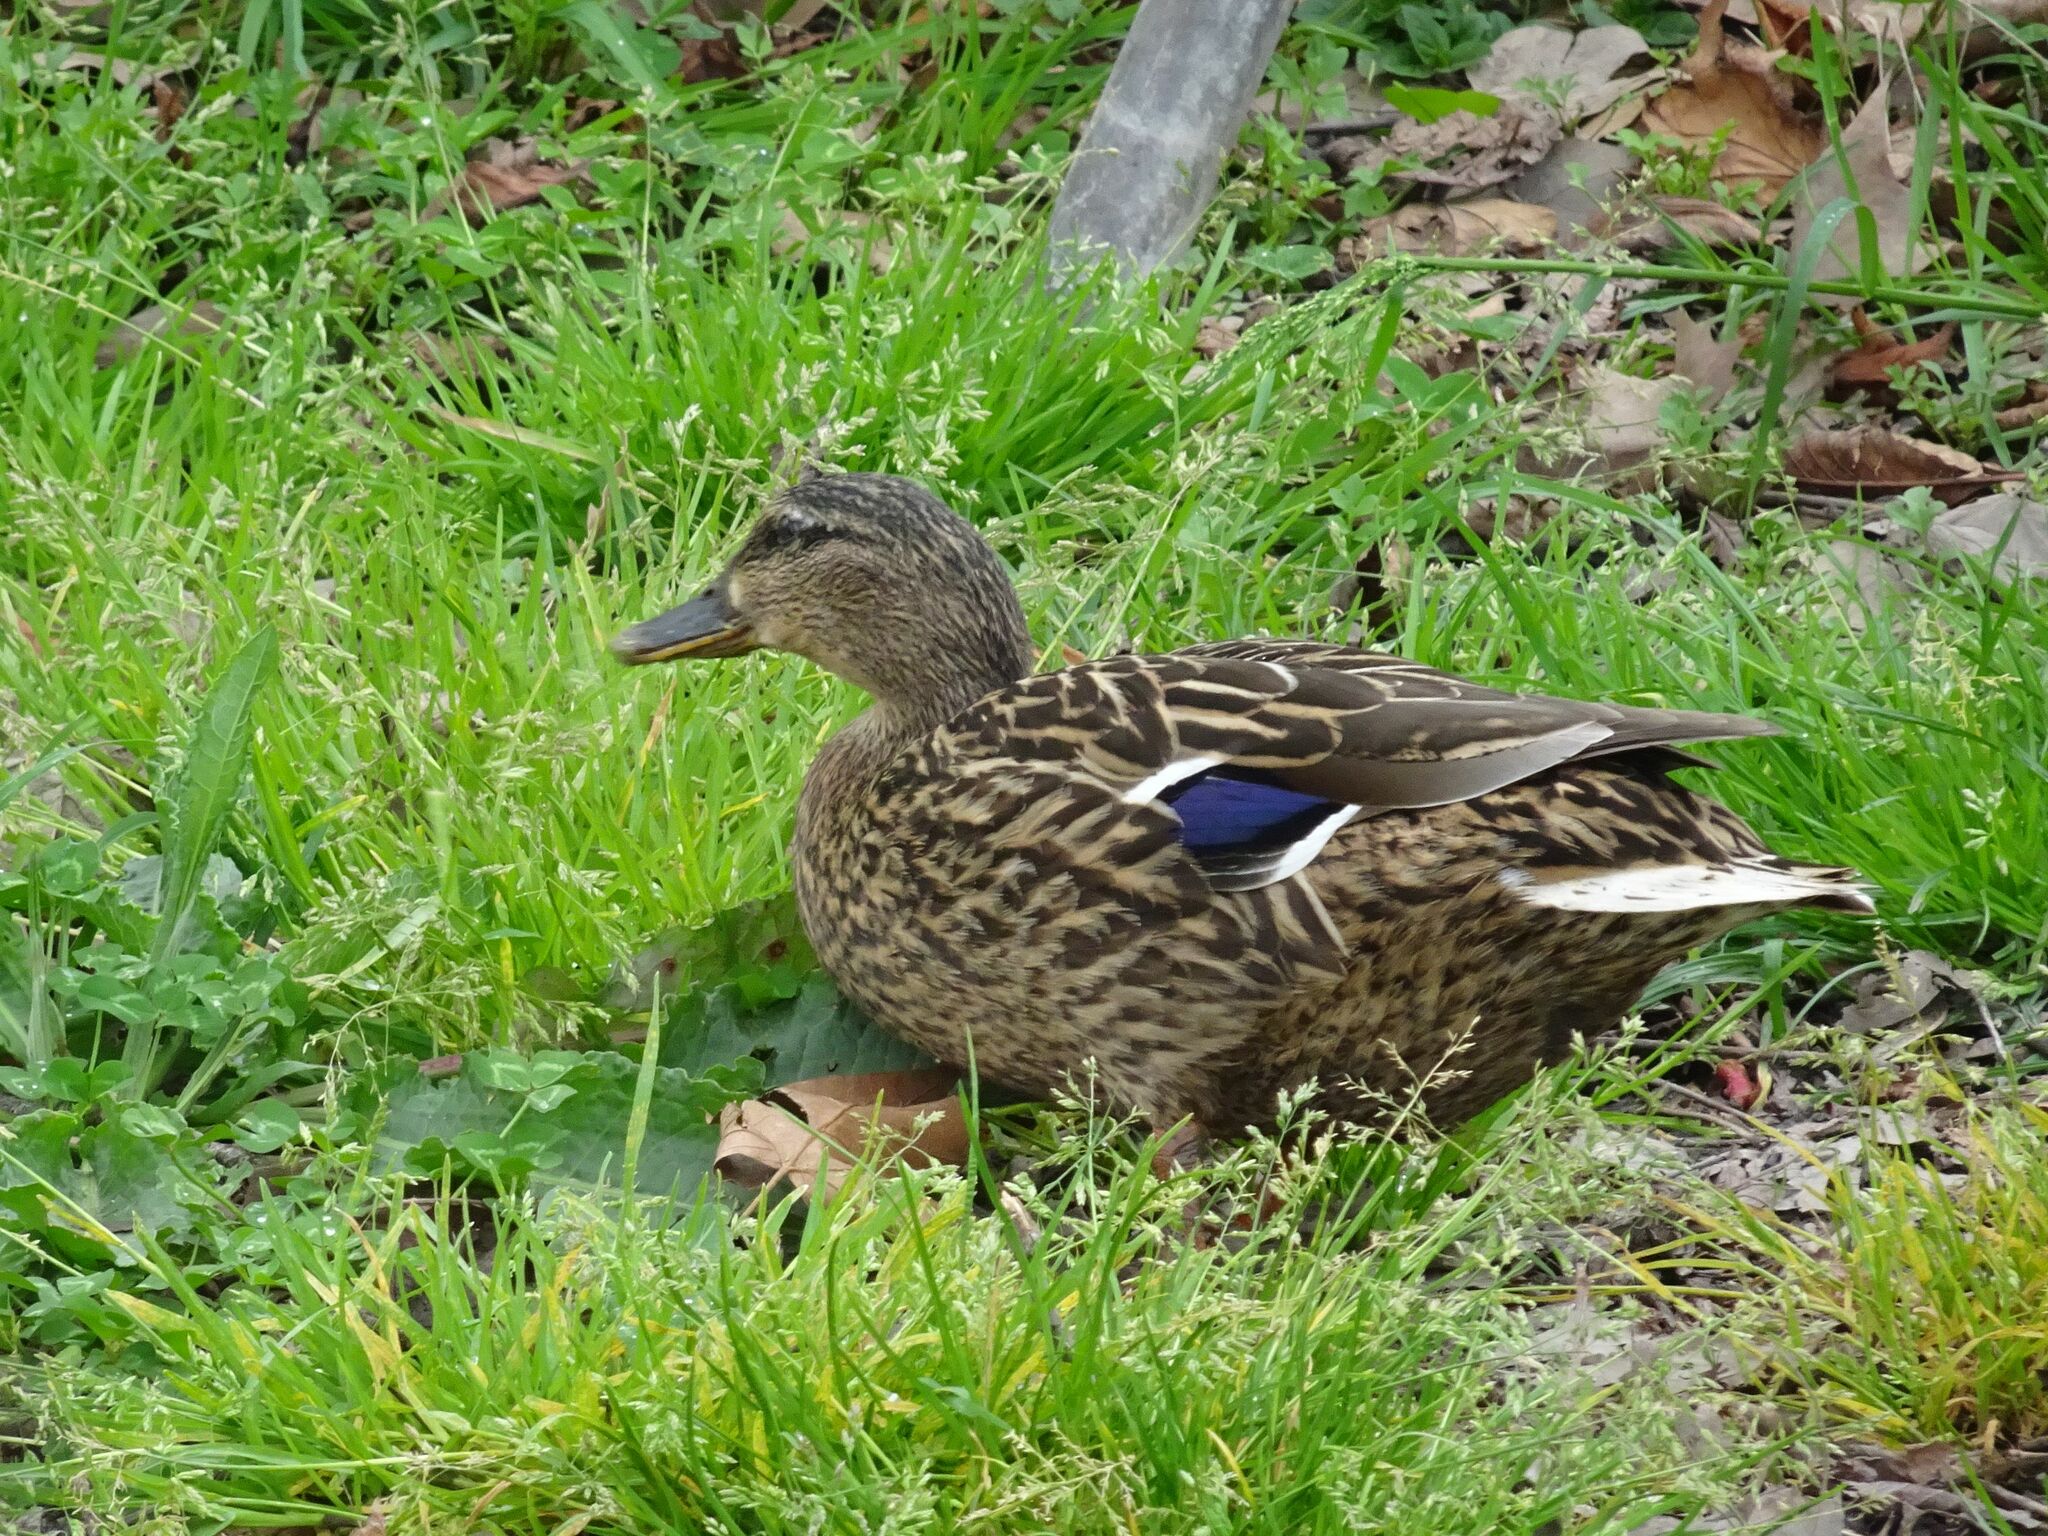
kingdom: Animalia
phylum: Chordata
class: Aves
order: Anseriformes
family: Anatidae
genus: Anas
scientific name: Anas platyrhynchos
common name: Mallard
